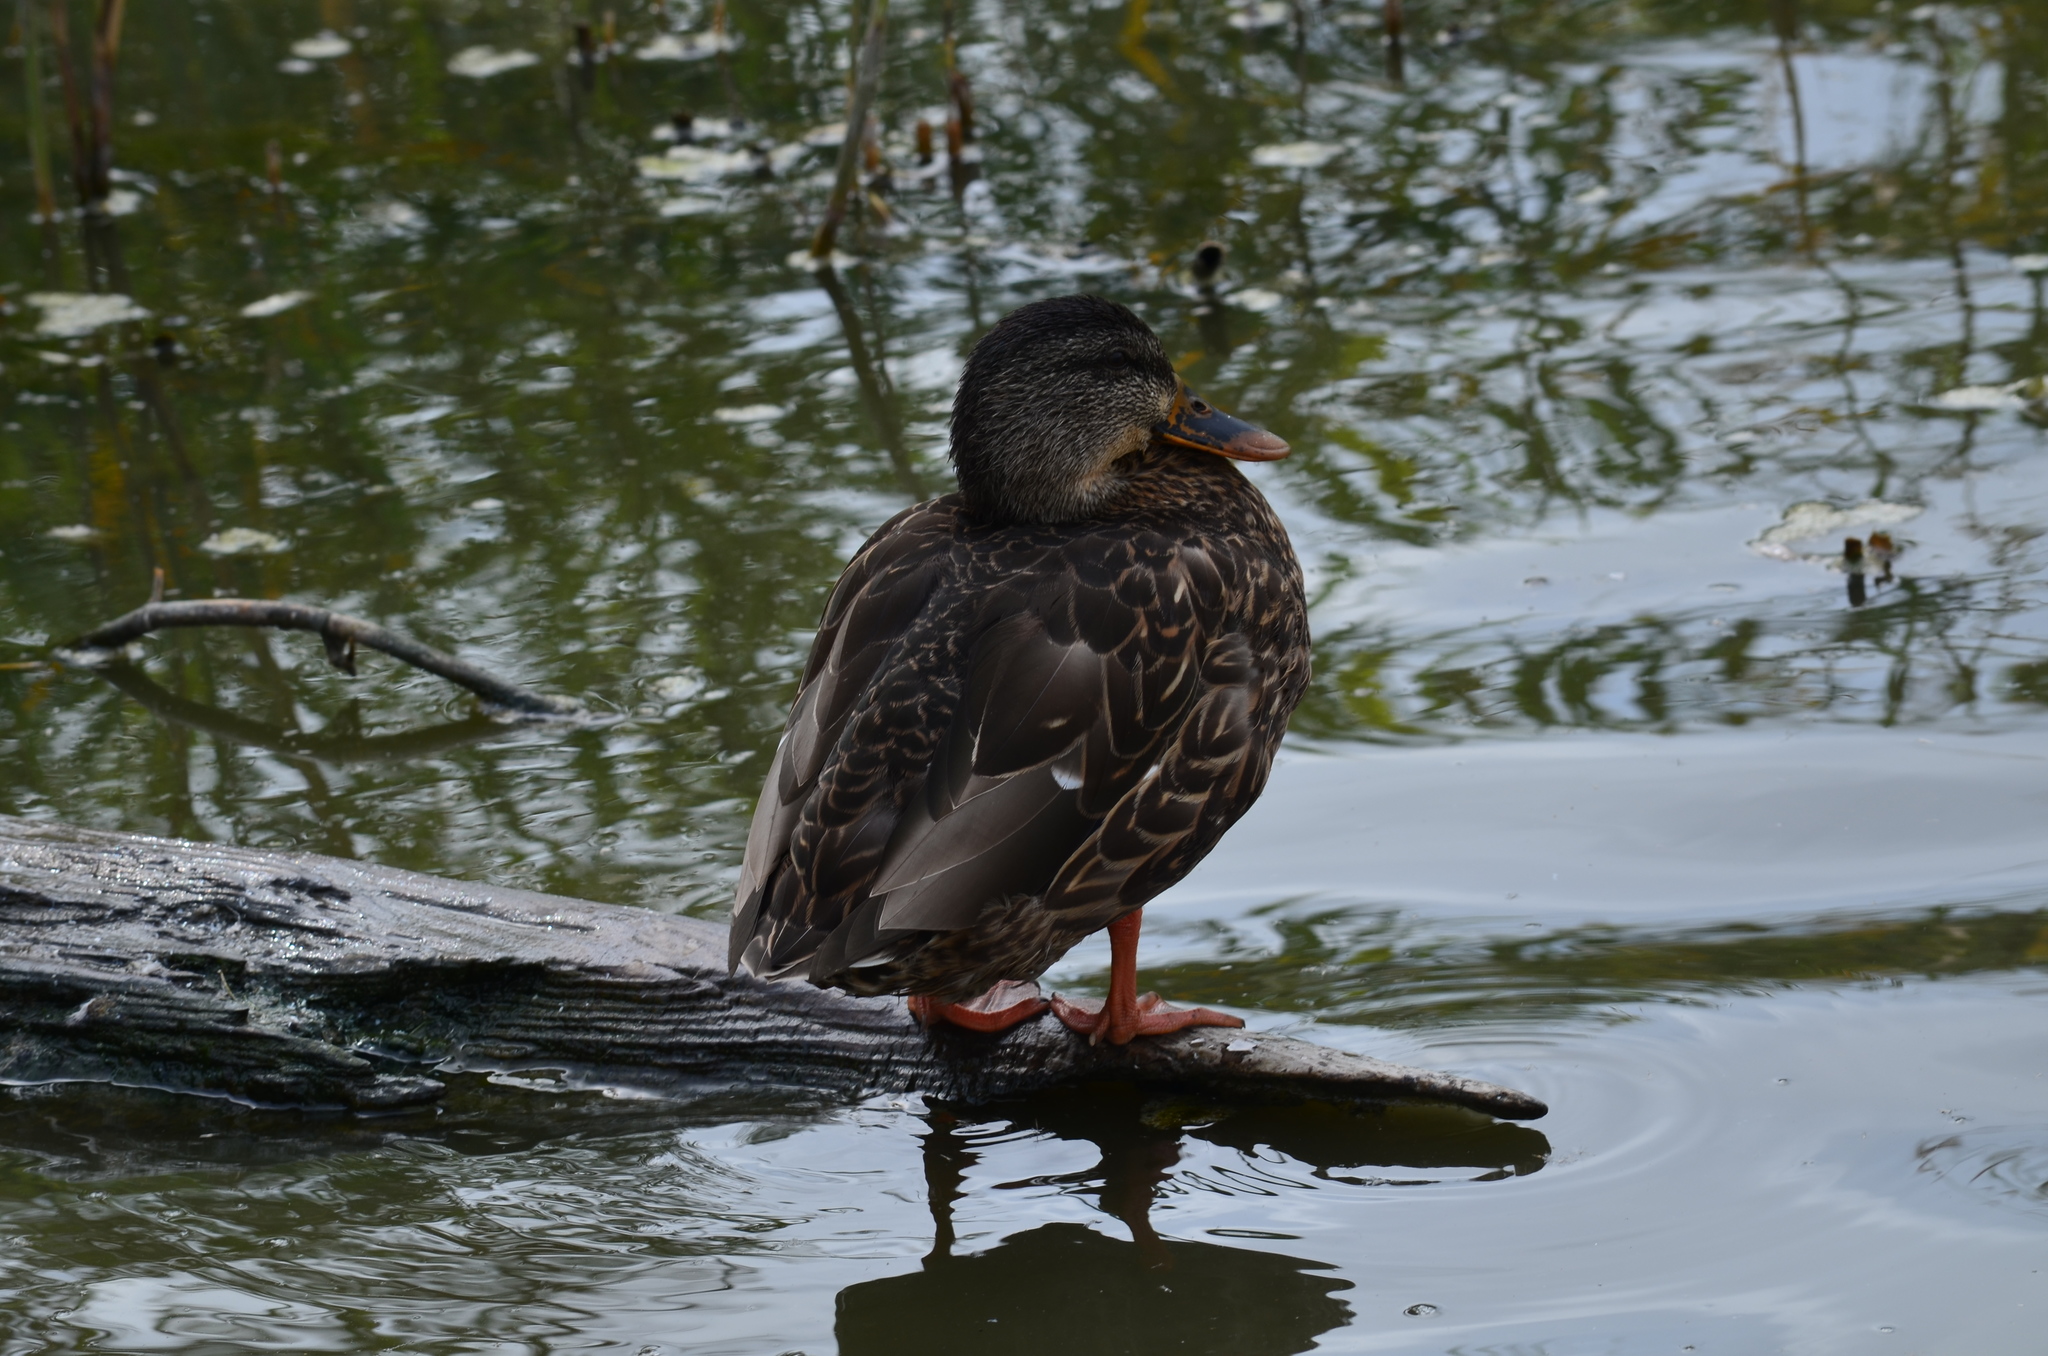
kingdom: Animalia
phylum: Chordata
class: Aves
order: Anseriformes
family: Anatidae
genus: Anas
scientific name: Anas platyrhynchos
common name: Mallard
